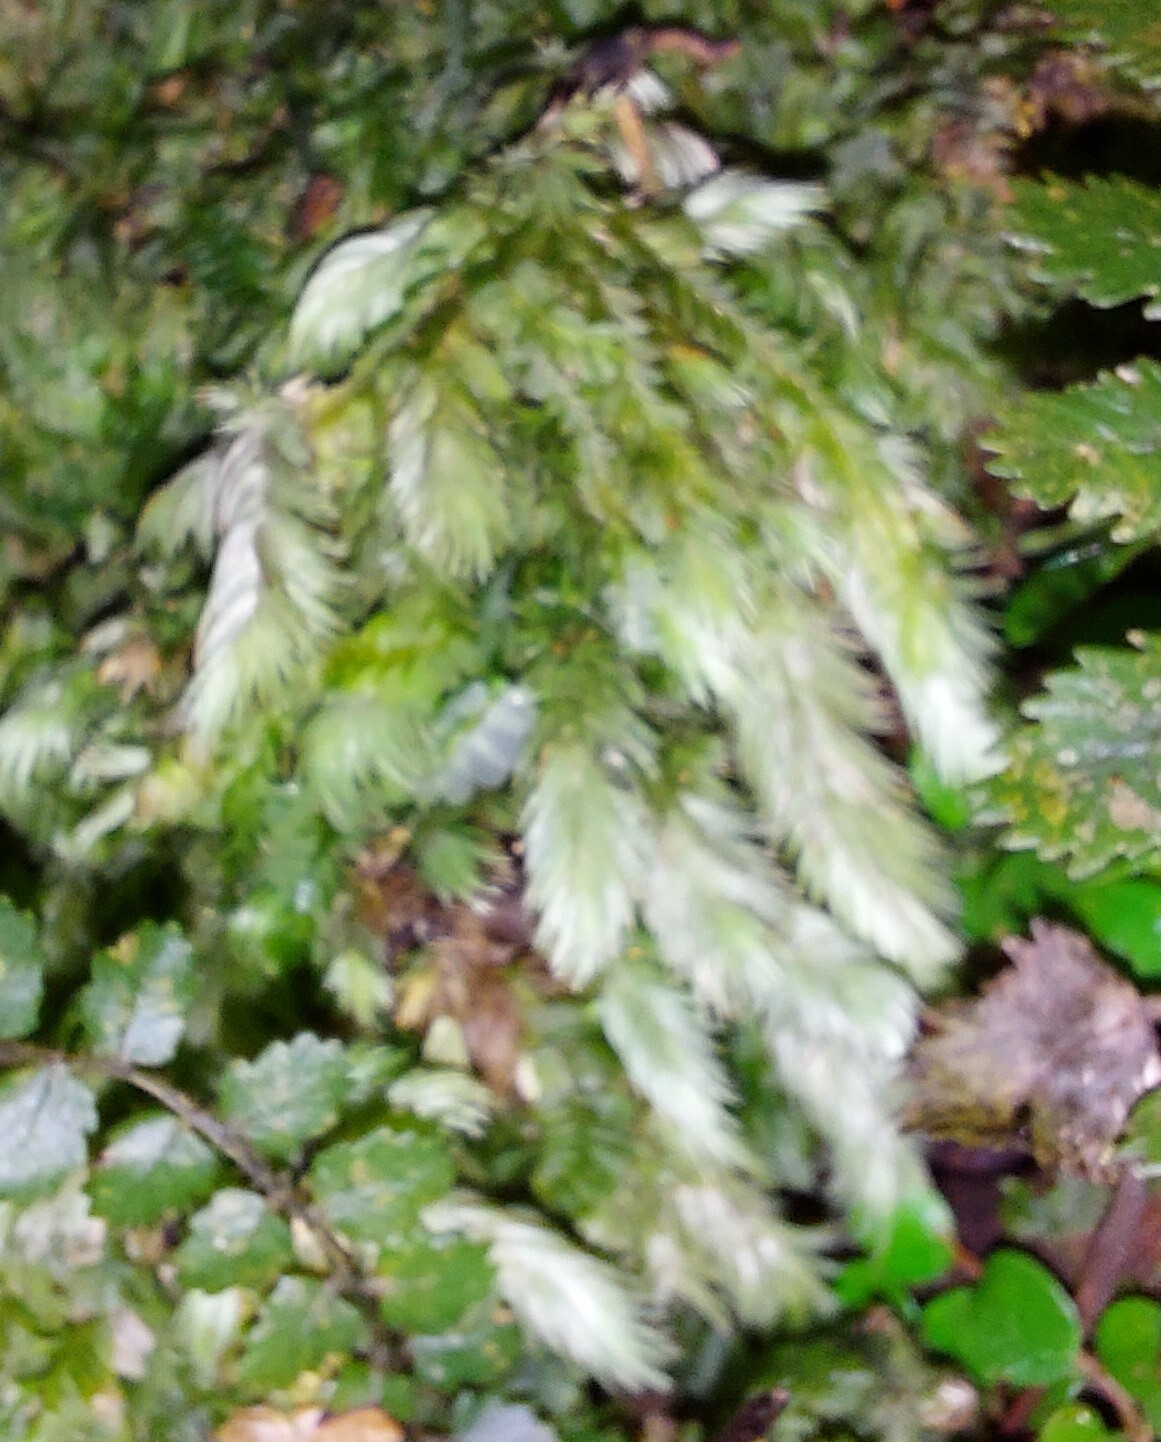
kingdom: Plantae
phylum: Bryophyta
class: Bryopsida
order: Dicranales
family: Leucobryaceae
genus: Leucobryum
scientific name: Leucobryum javense
